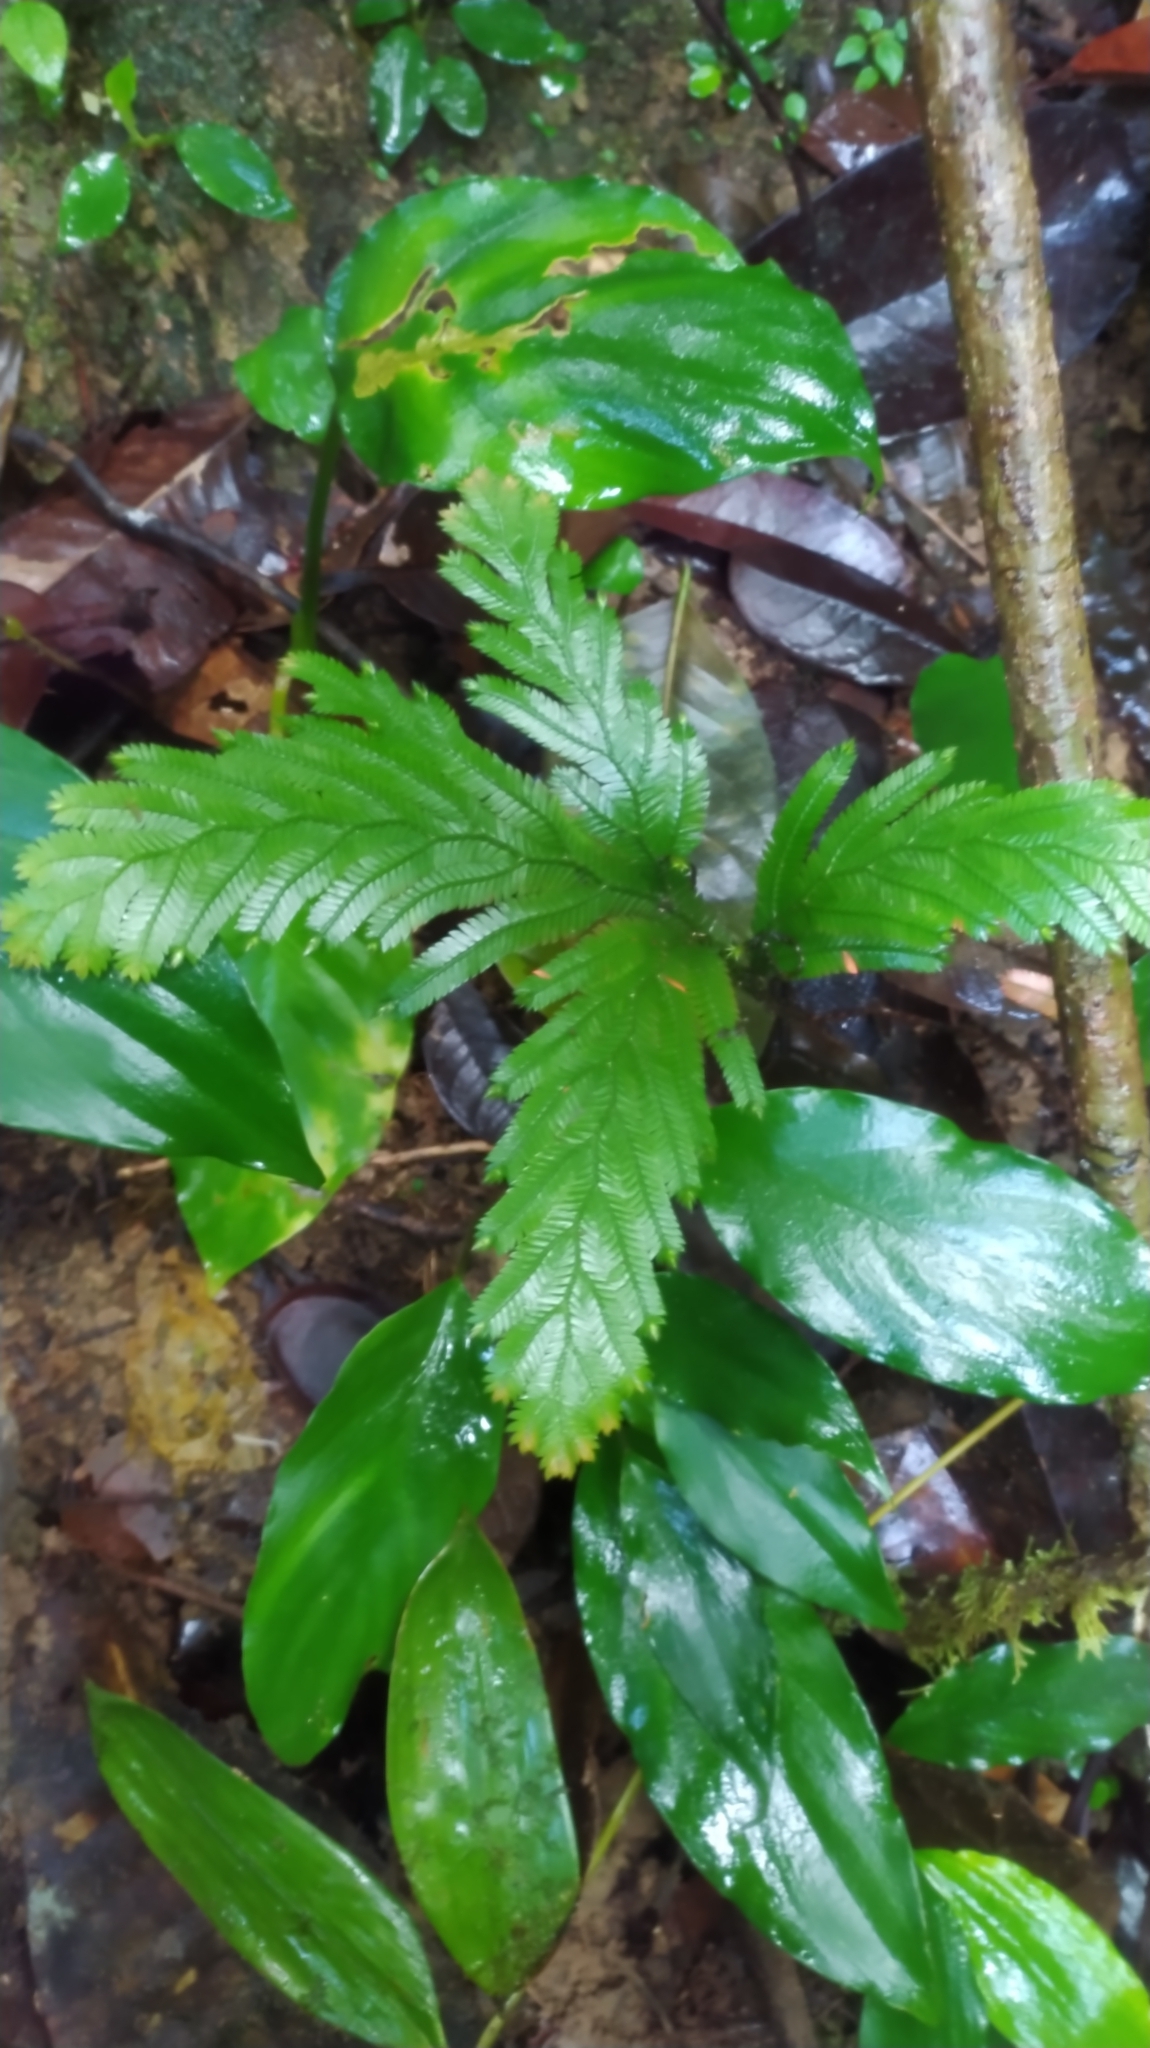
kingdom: Plantae
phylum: Tracheophyta
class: Lycopodiopsida
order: Selaginellales
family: Selaginellaceae
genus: Selaginella
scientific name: Selaginella parkeri
